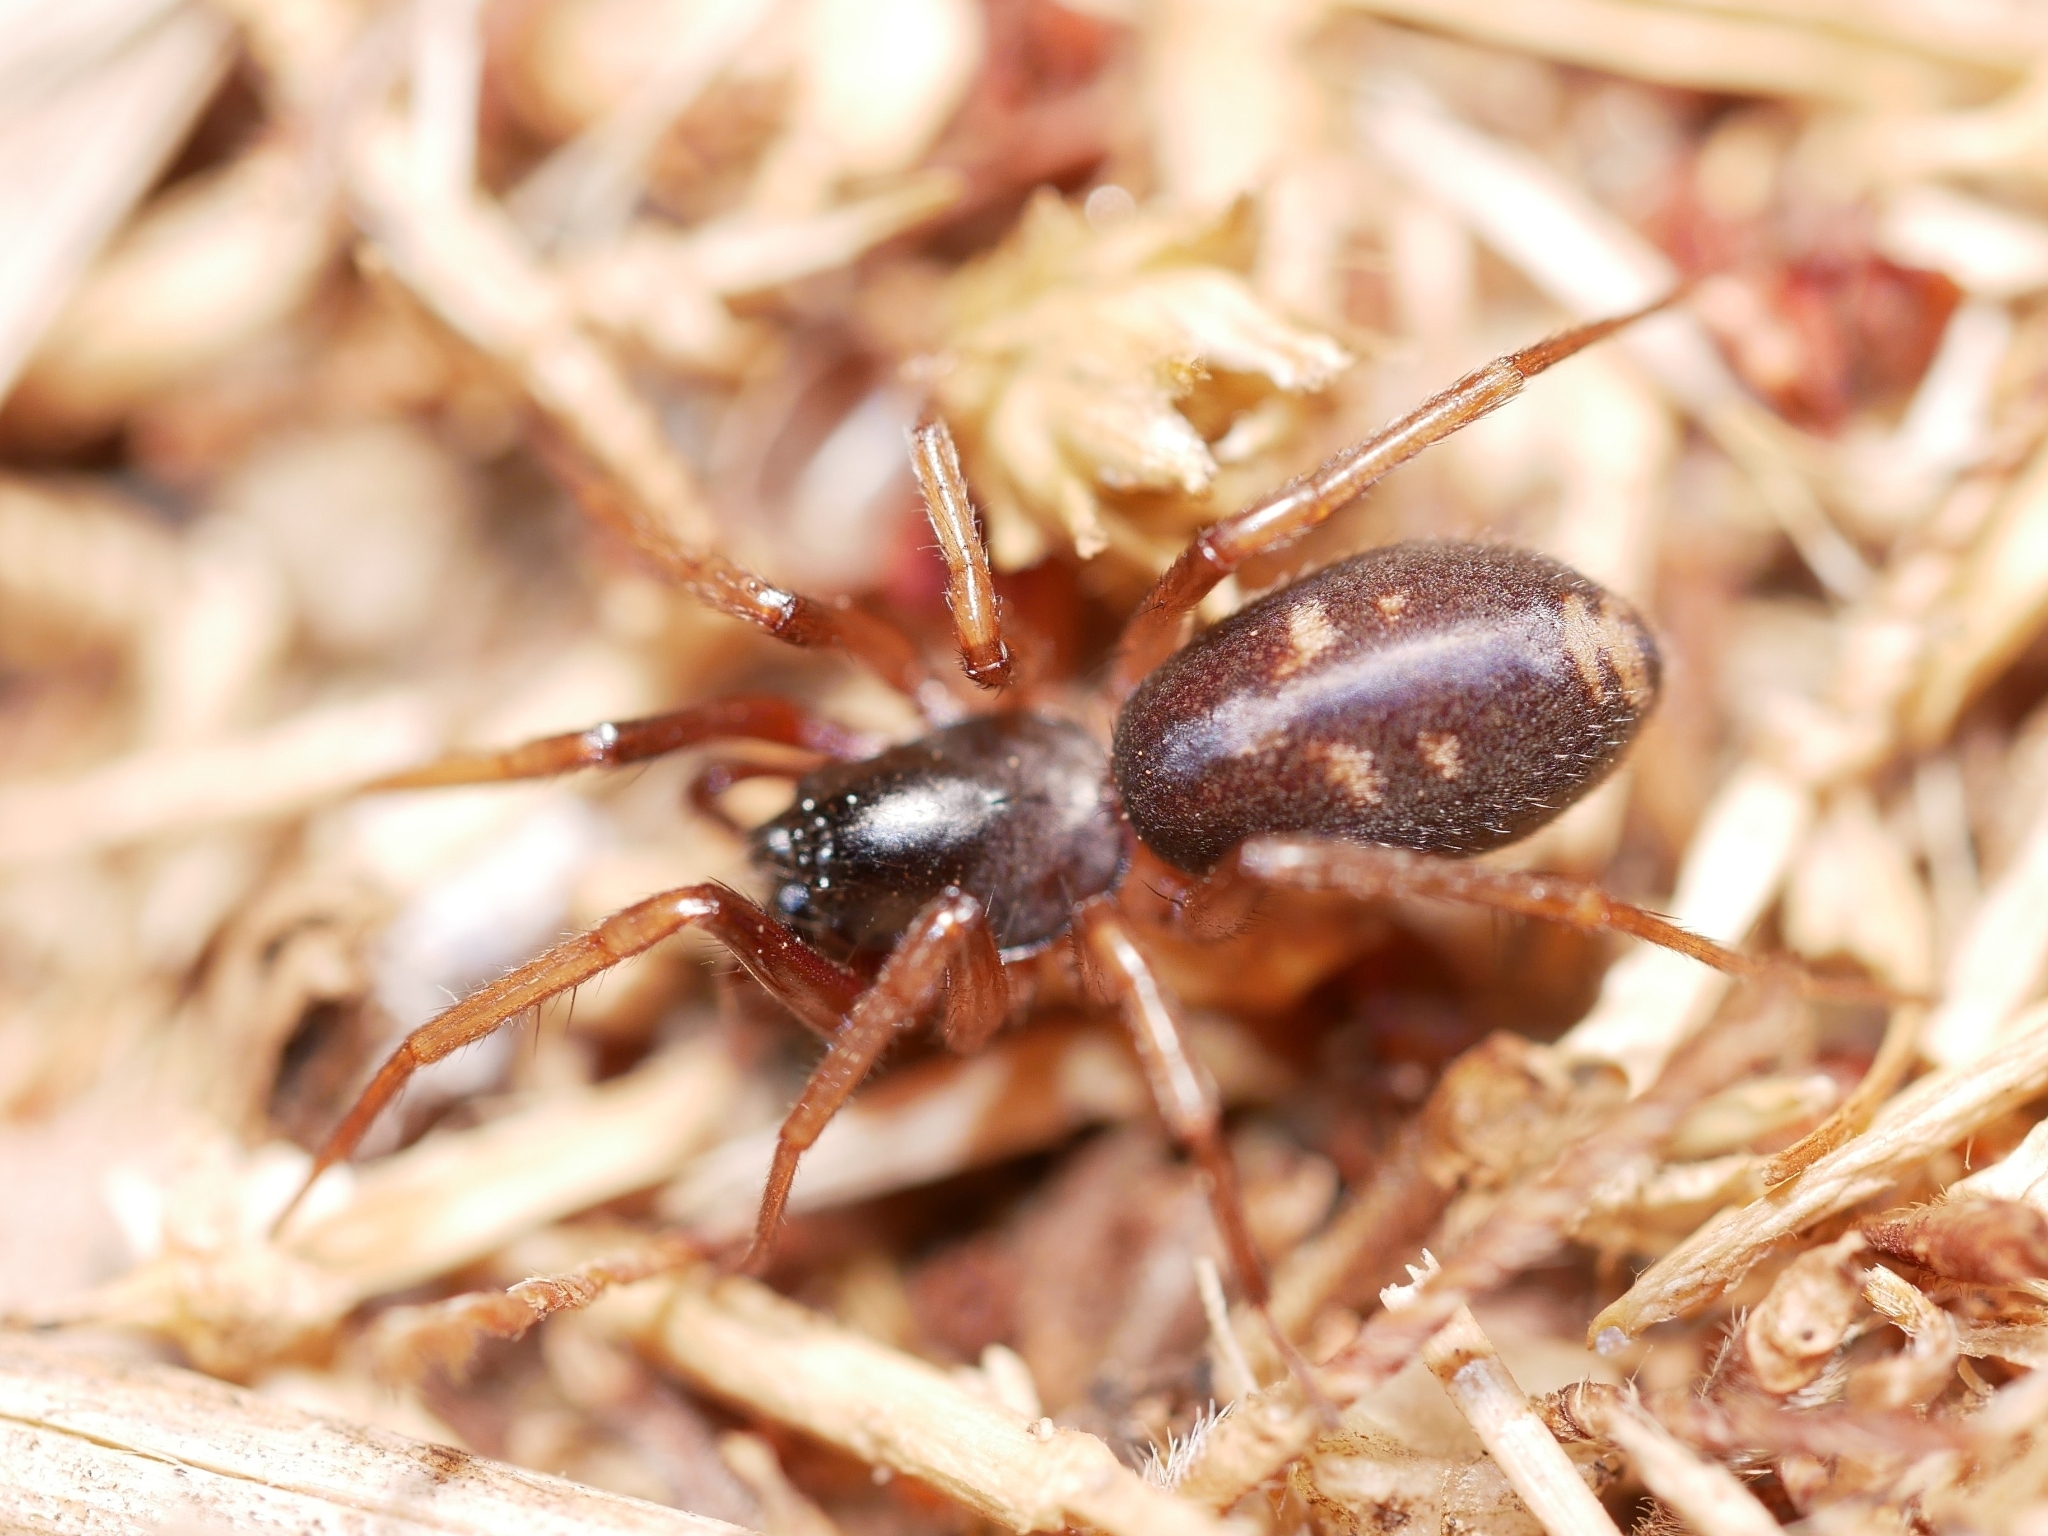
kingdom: Animalia
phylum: Arthropoda
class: Arachnida
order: Araneae
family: Corinnidae
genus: Falconina
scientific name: Falconina gracilis
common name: Antmimic spider
